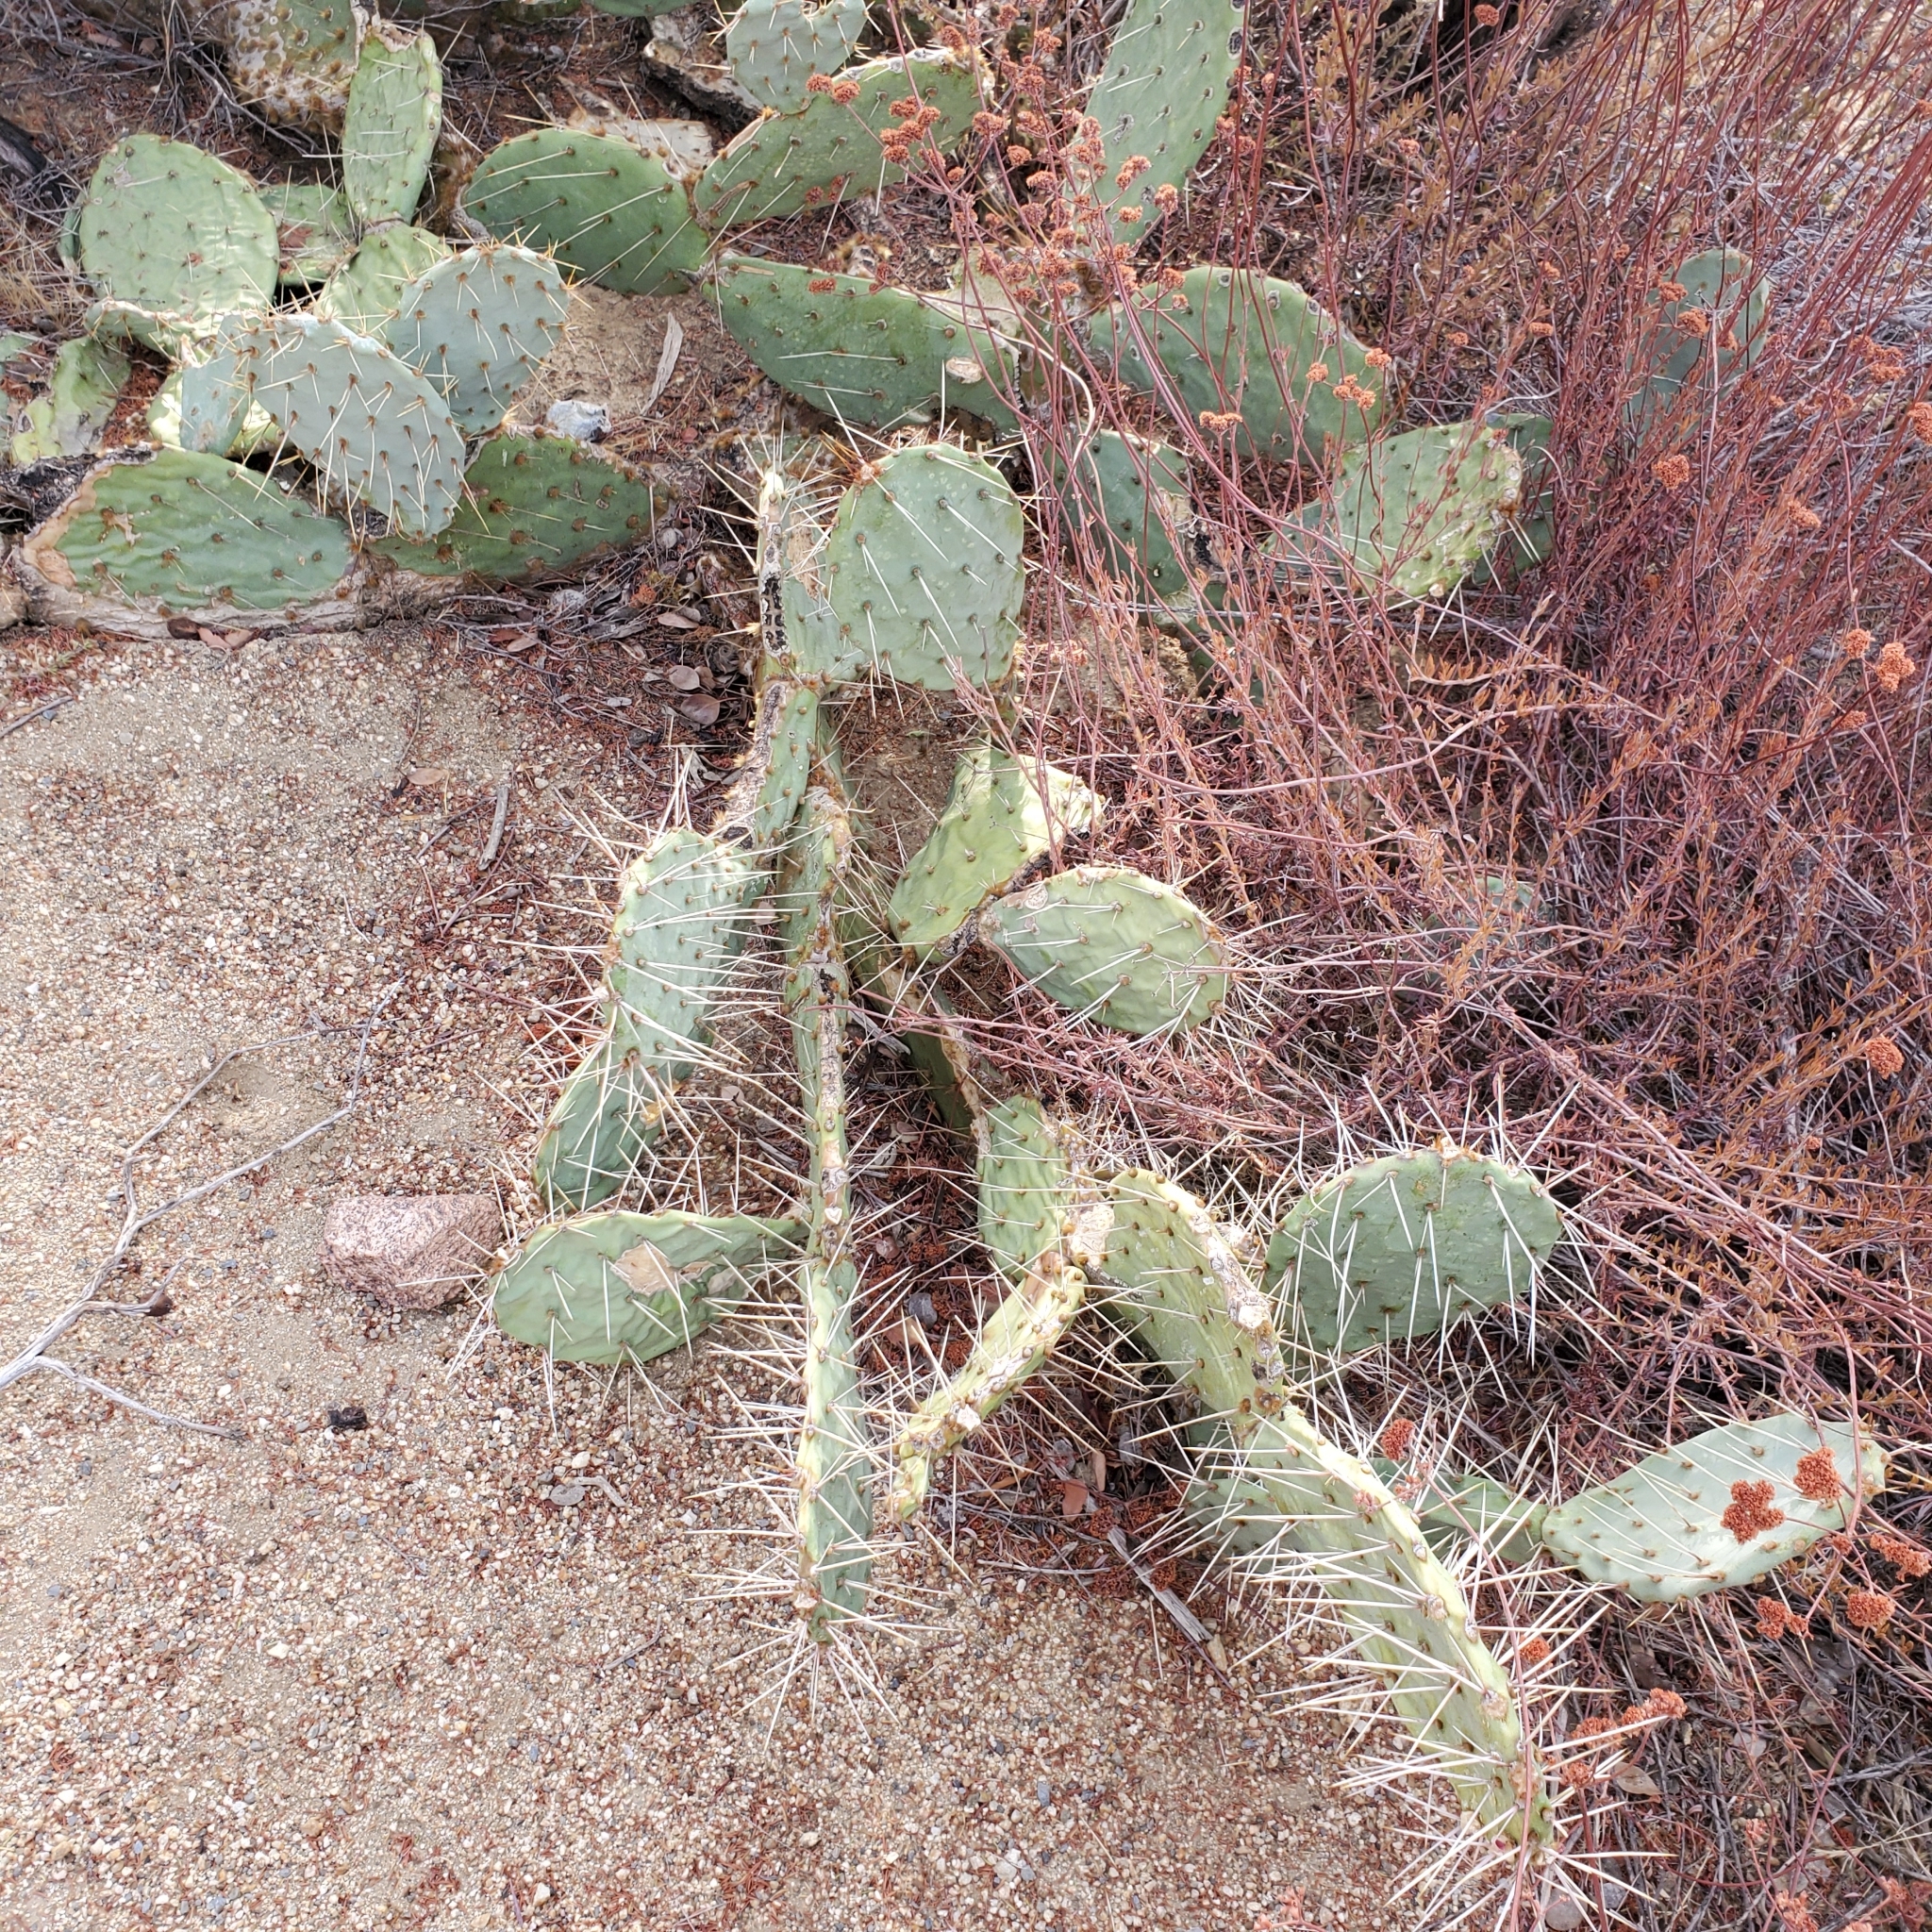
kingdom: Plantae
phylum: Tracheophyta
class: Magnoliopsida
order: Caryophyllales
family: Cactaceae
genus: Opuntia
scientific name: Opuntia phaeacantha
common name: New mexico prickly-pear
